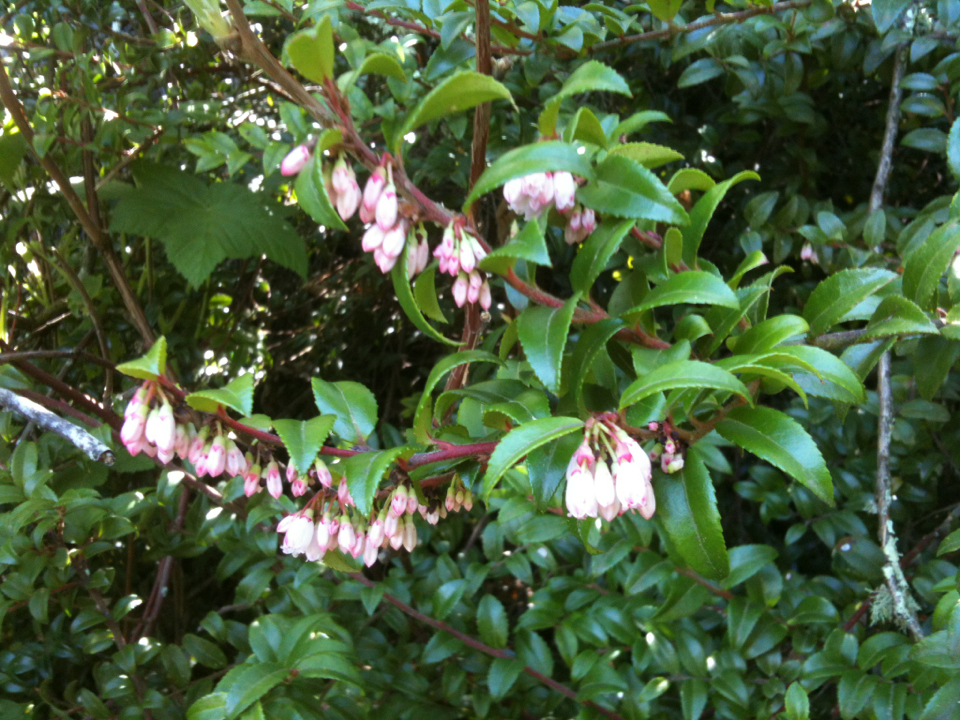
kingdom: Plantae
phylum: Tracheophyta
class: Magnoliopsida
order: Ericales
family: Ericaceae
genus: Vaccinium
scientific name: Vaccinium ovatum
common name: California-huckleberry
